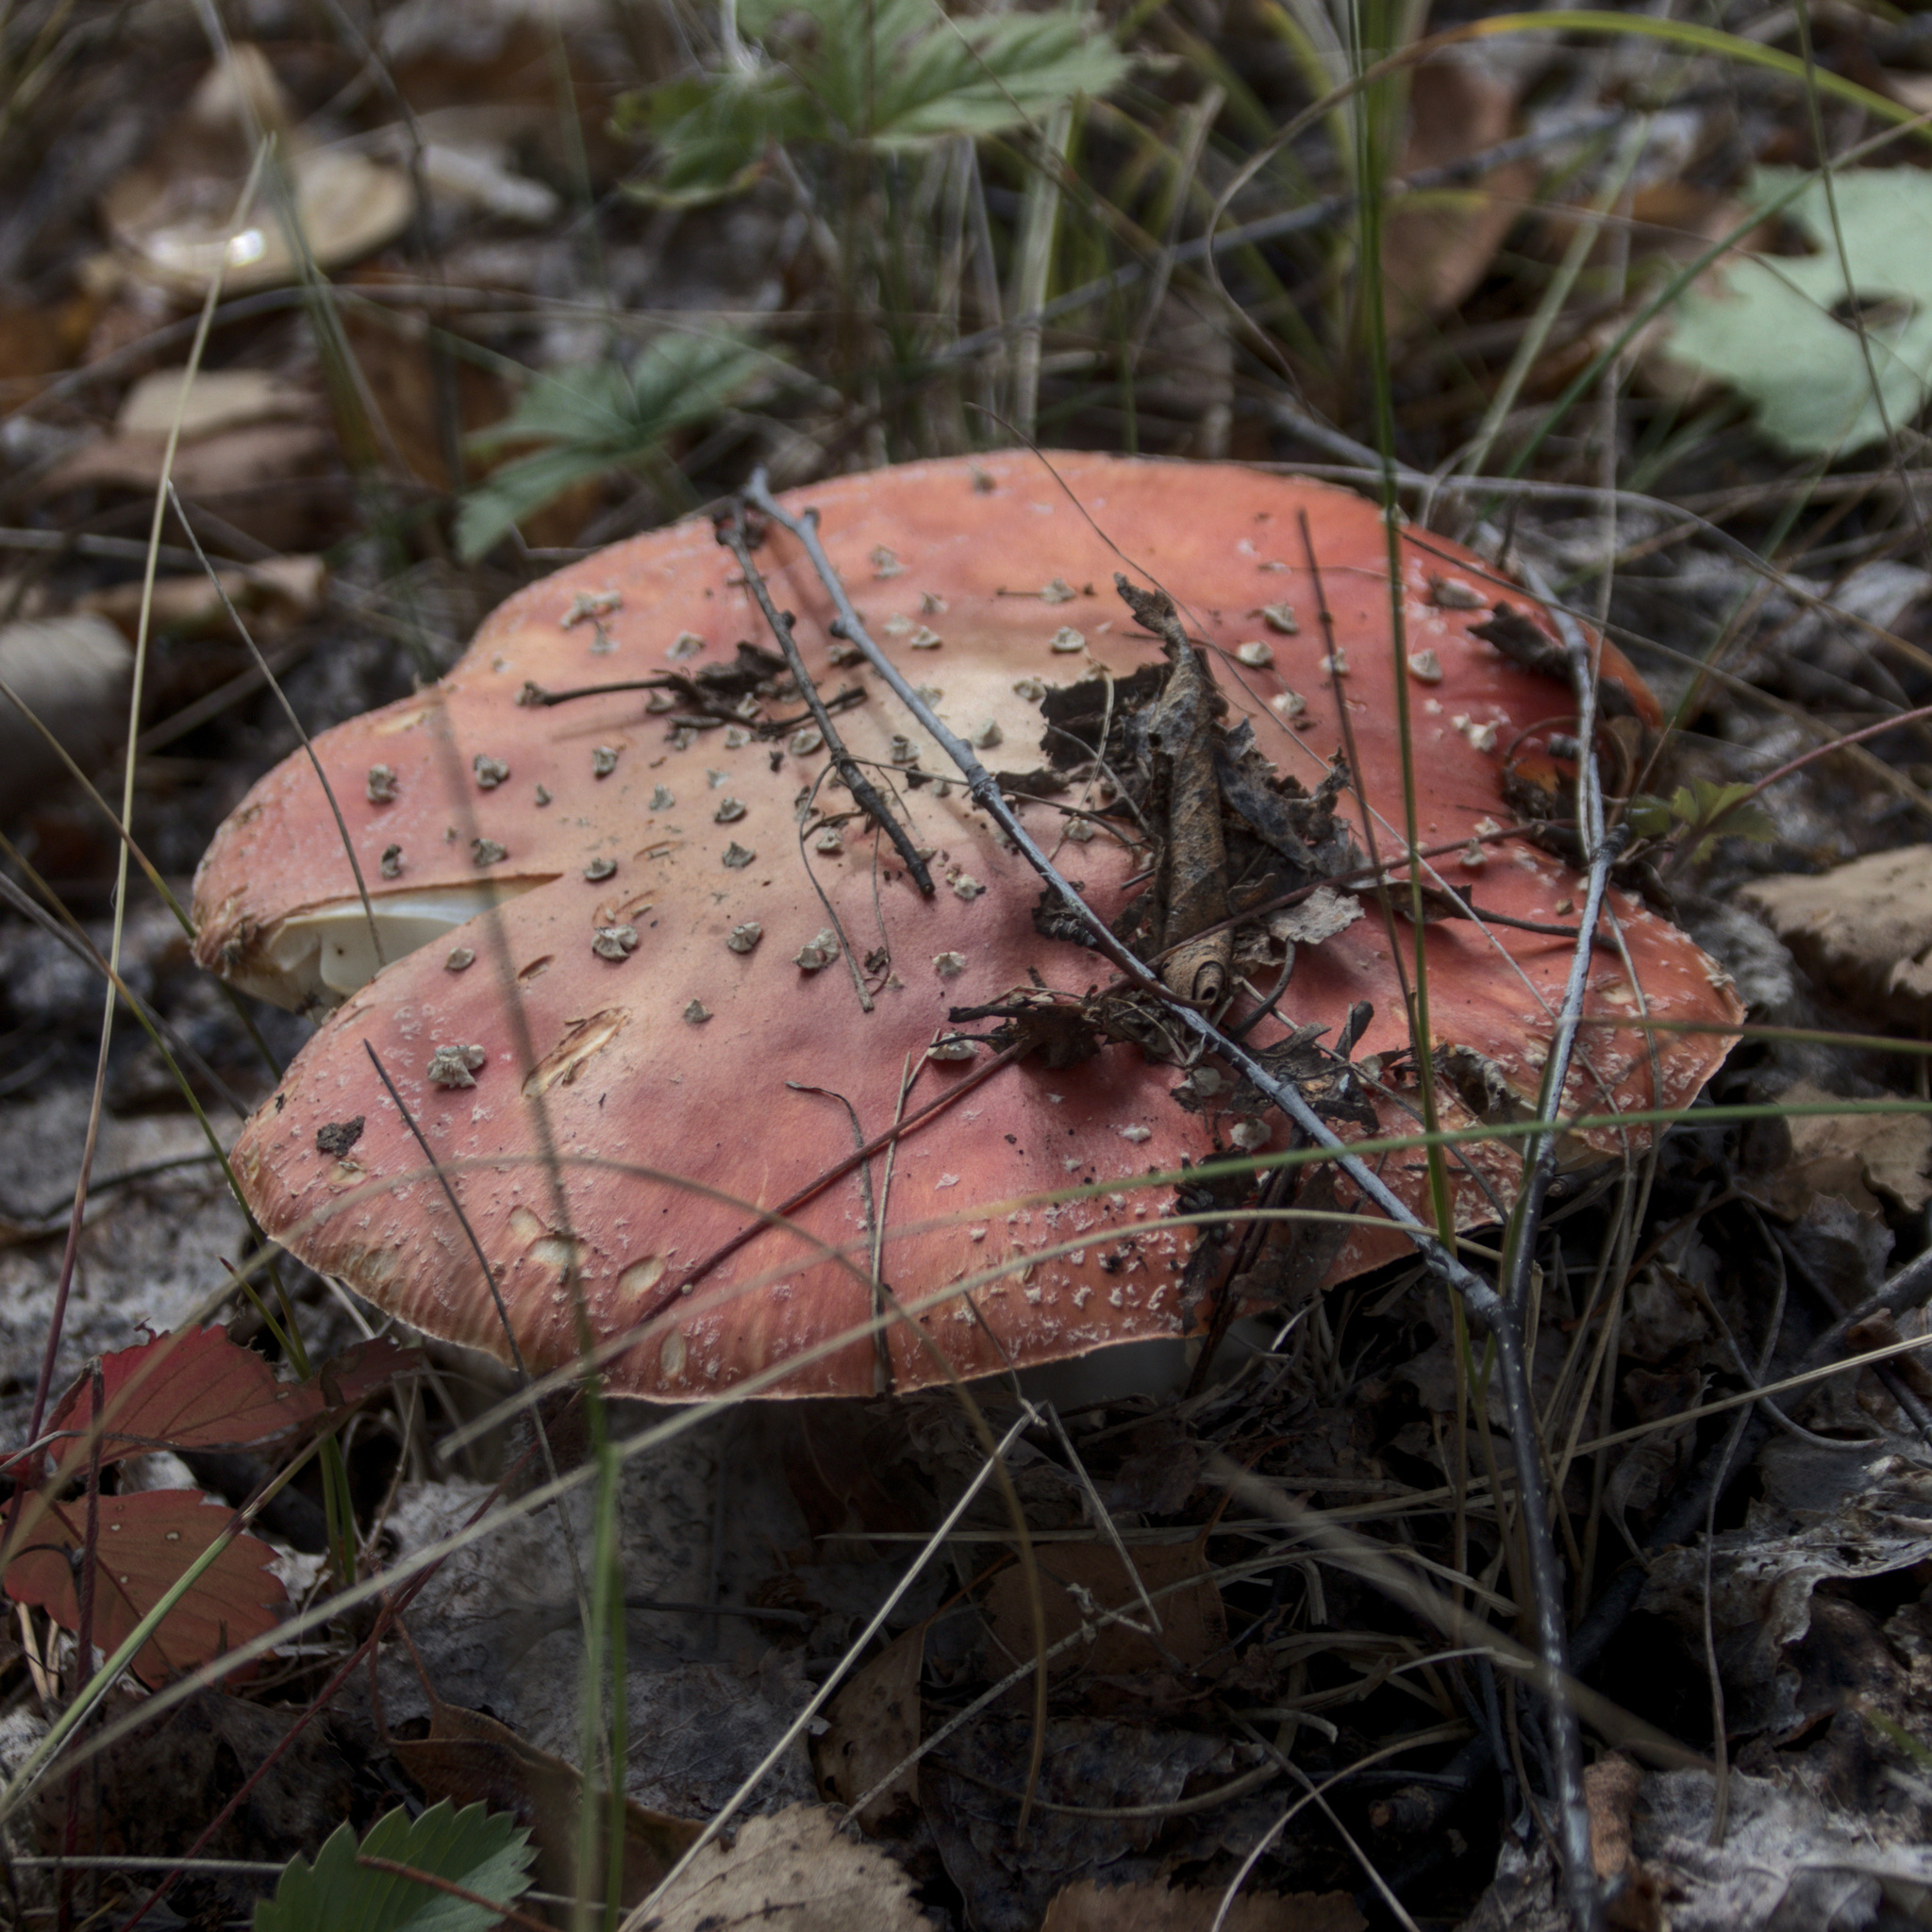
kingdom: Fungi
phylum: Basidiomycota
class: Agaricomycetes
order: Agaricales
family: Amanitaceae
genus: Amanita
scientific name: Amanita muscaria
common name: Fly agaric
